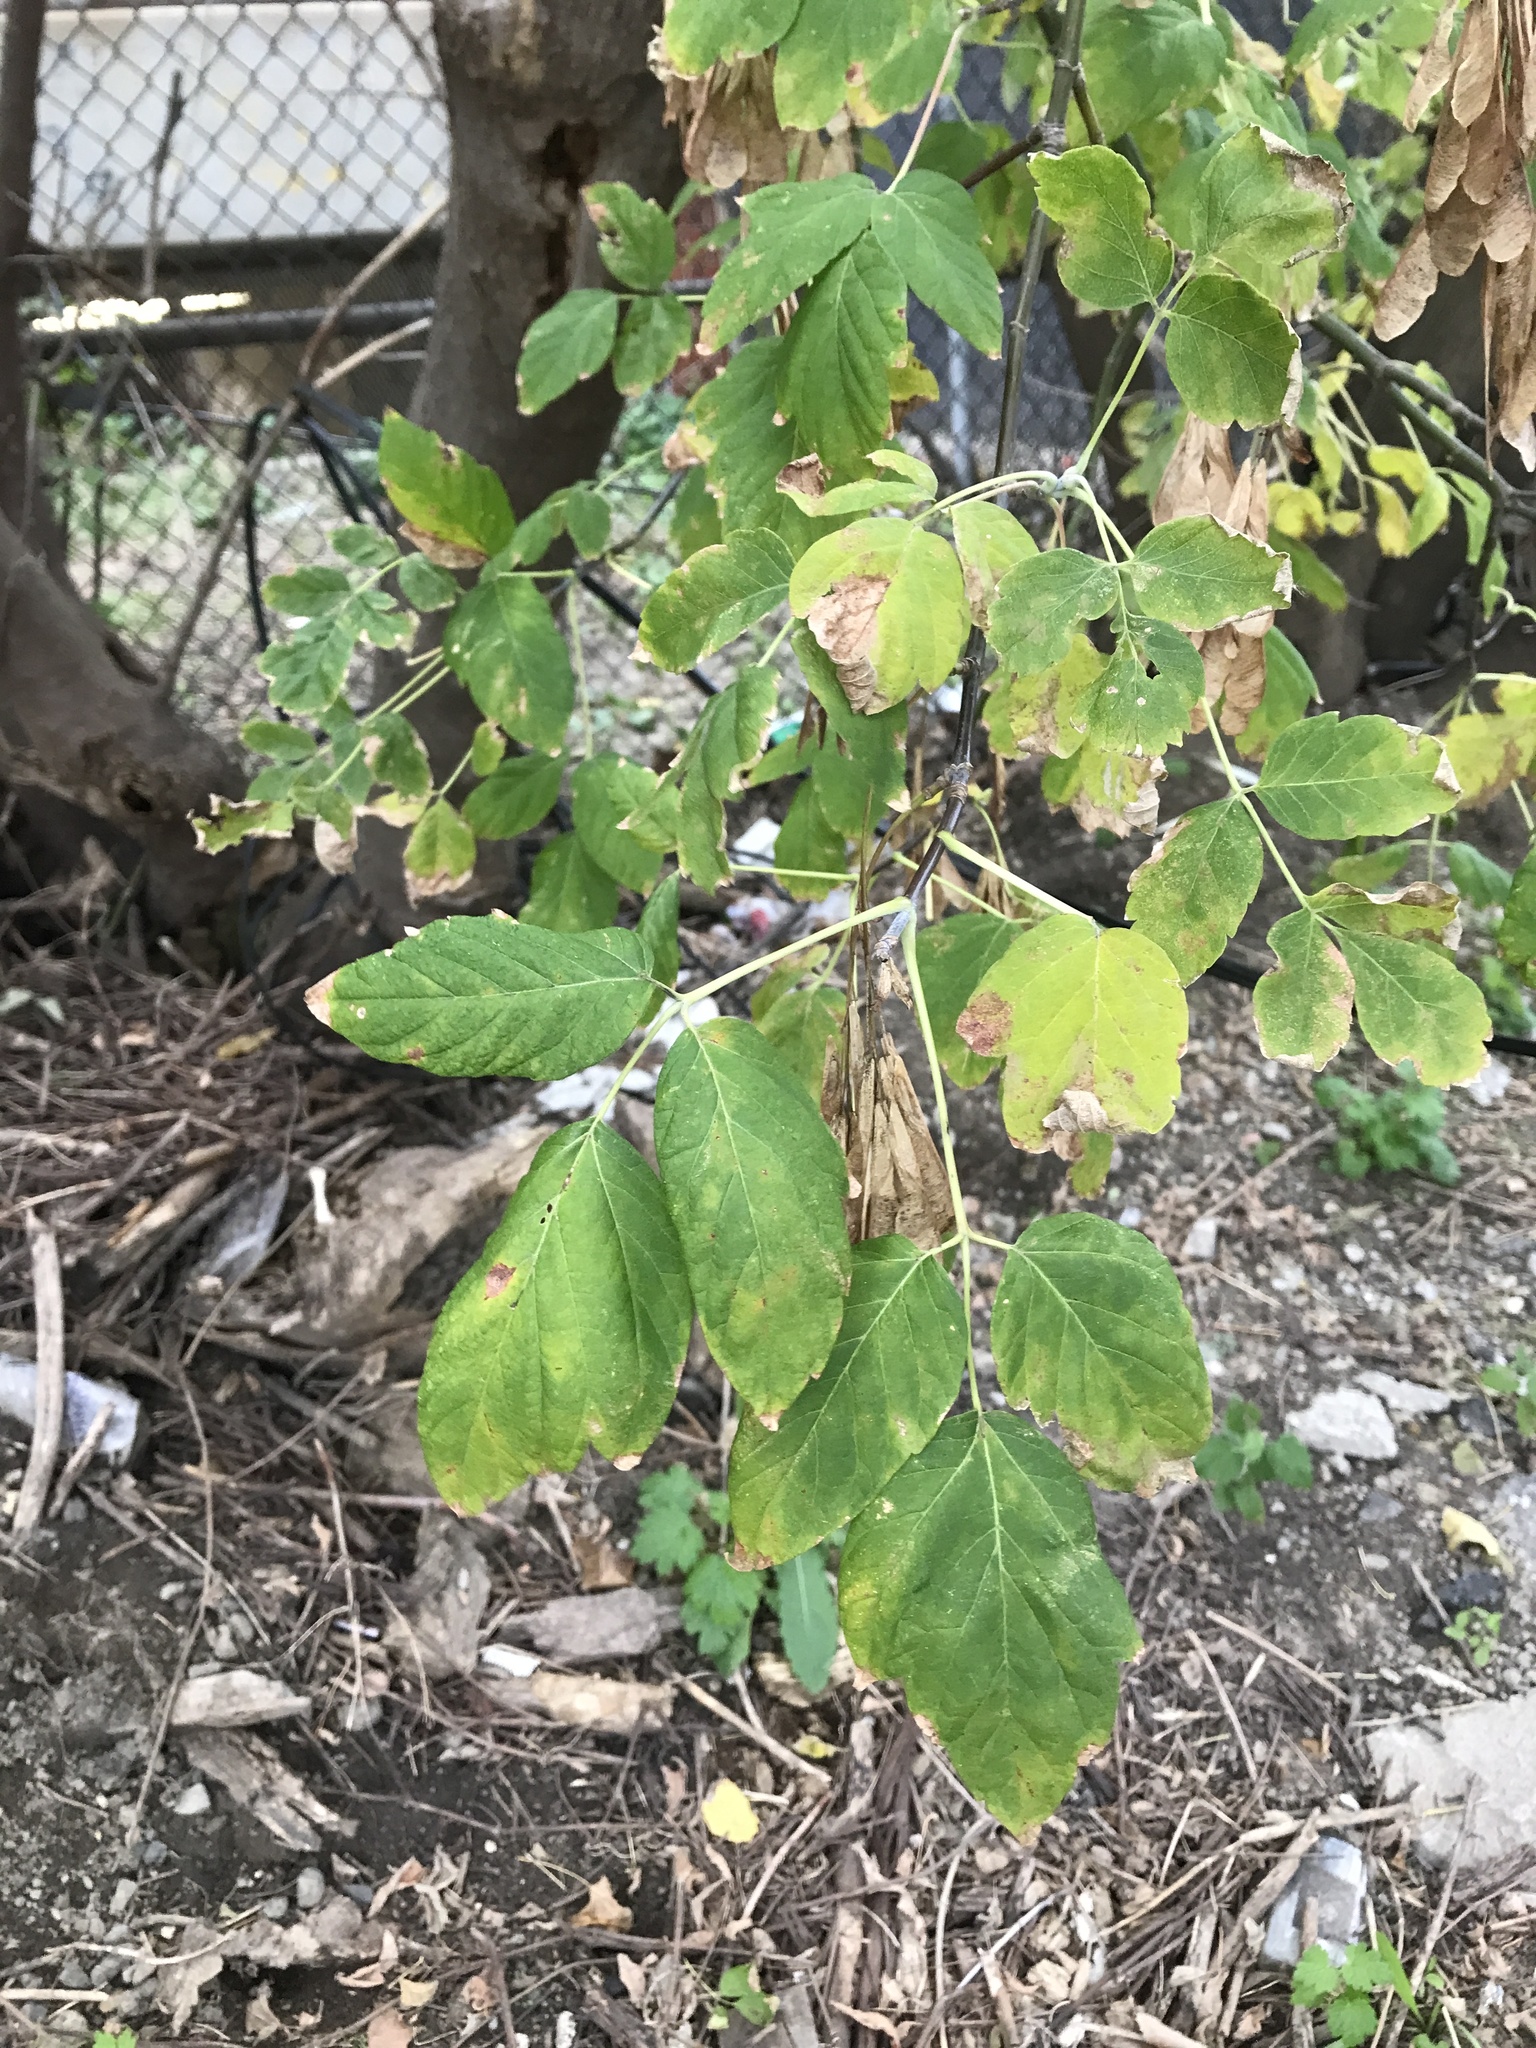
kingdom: Plantae
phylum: Tracheophyta
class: Magnoliopsida
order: Sapindales
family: Sapindaceae
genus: Acer
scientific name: Acer negundo
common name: Ashleaf maple
